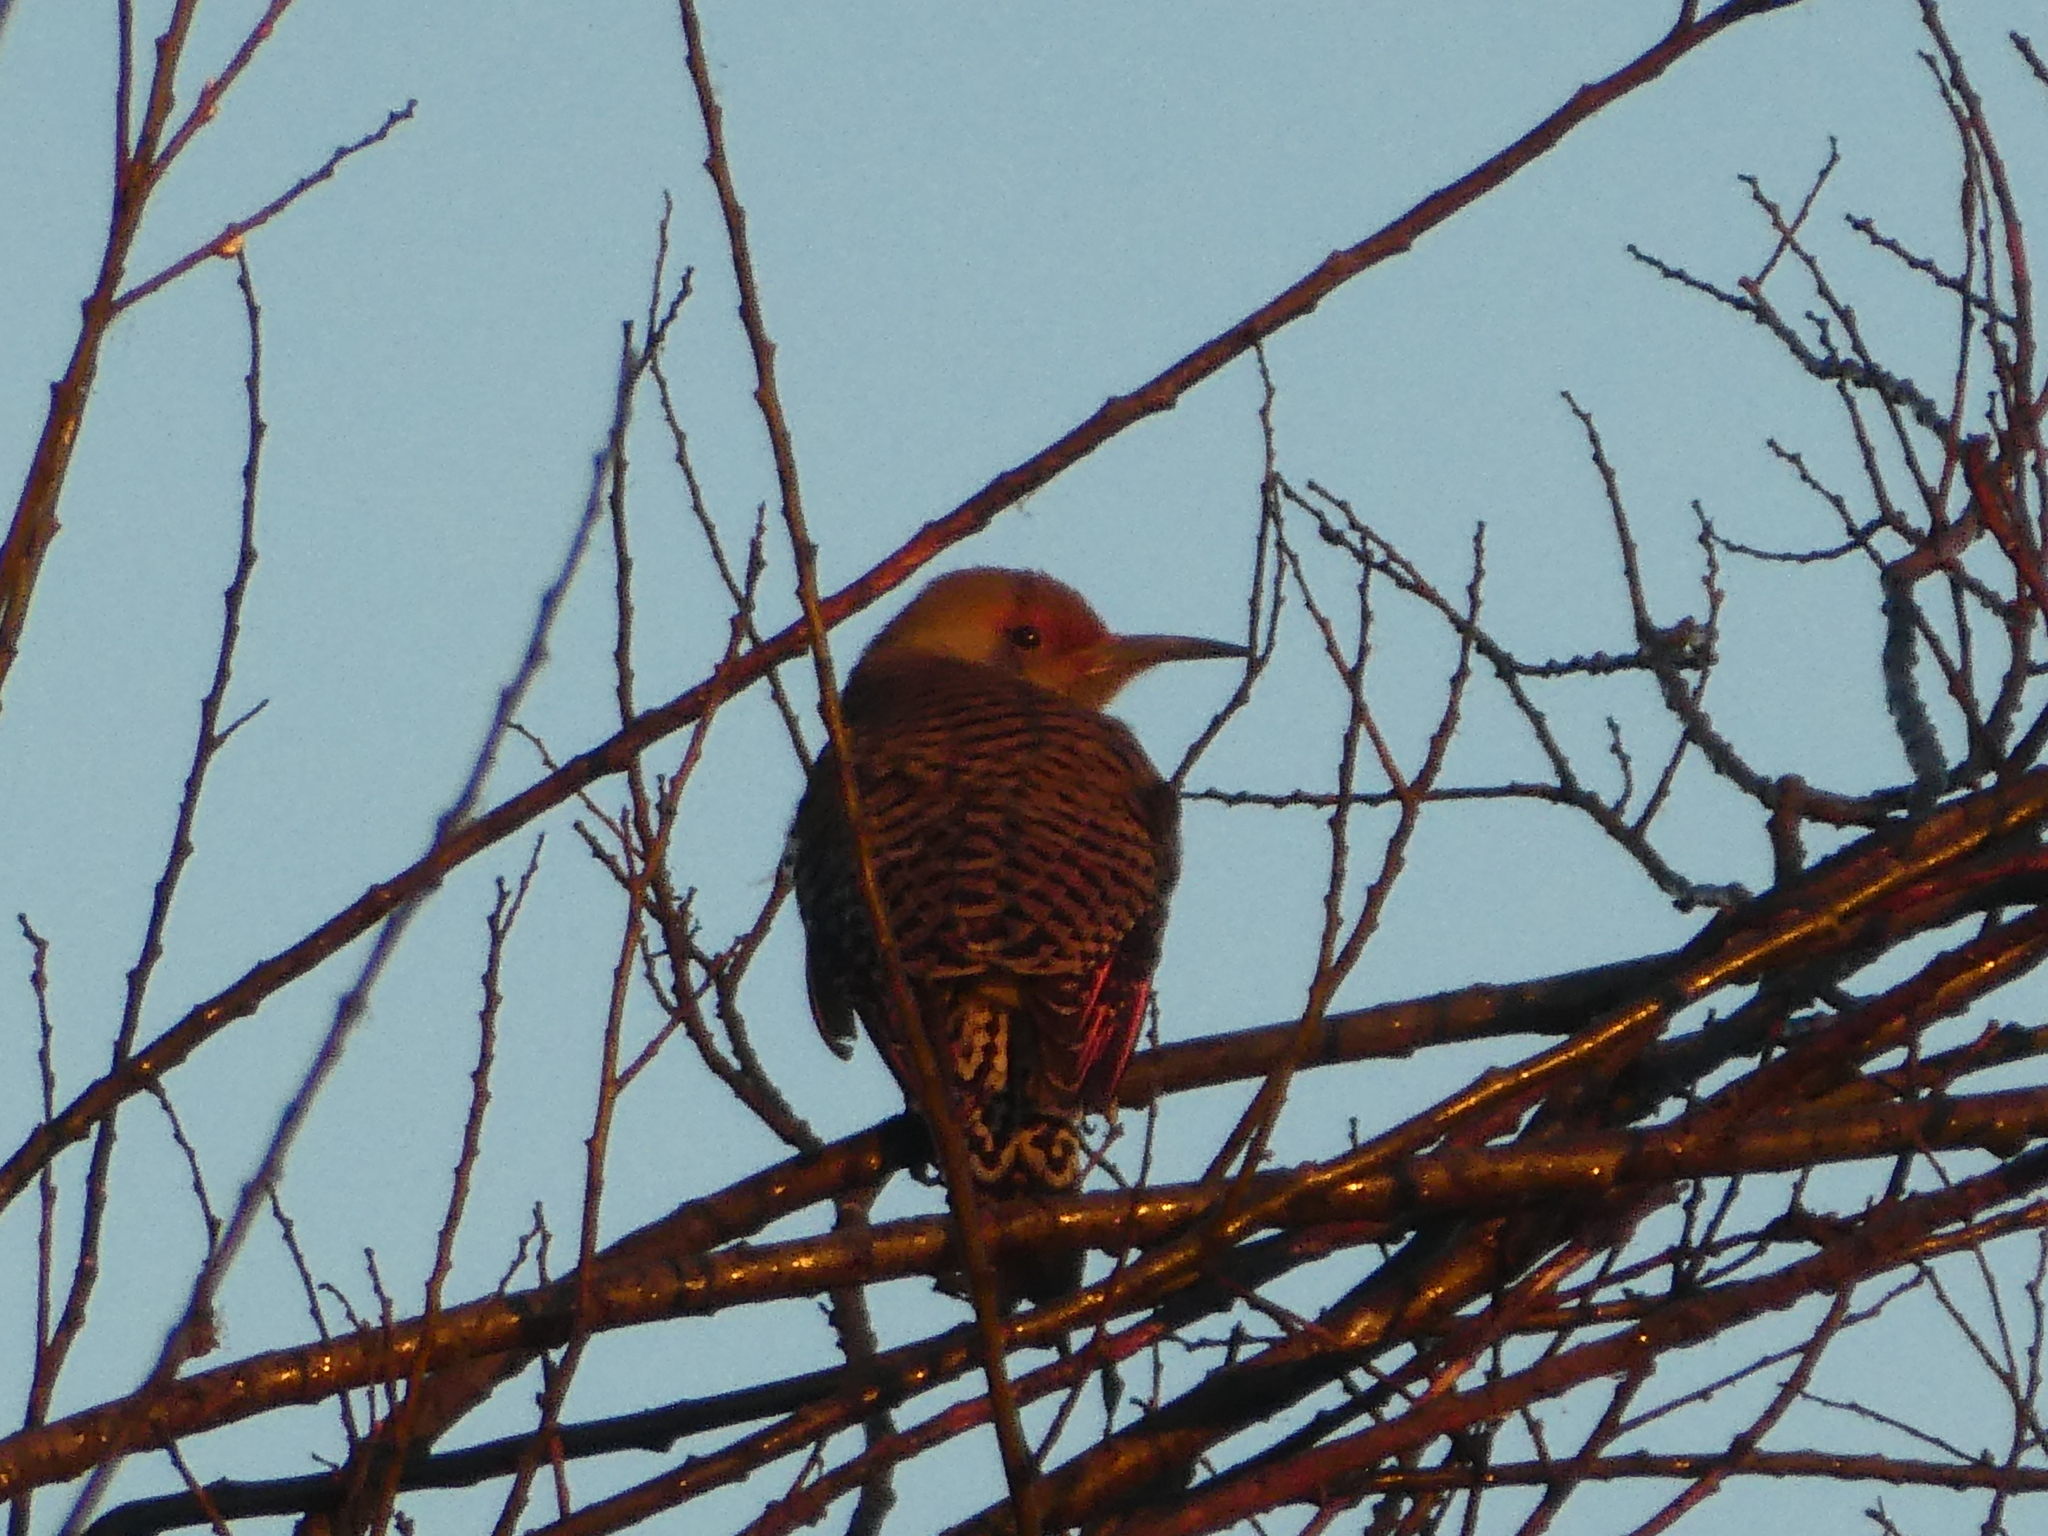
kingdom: Animalia
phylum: Chordata
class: Aves
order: Piciformes
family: Picidae
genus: Colaptes
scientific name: Colaptes auratus
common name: Northern flicker
